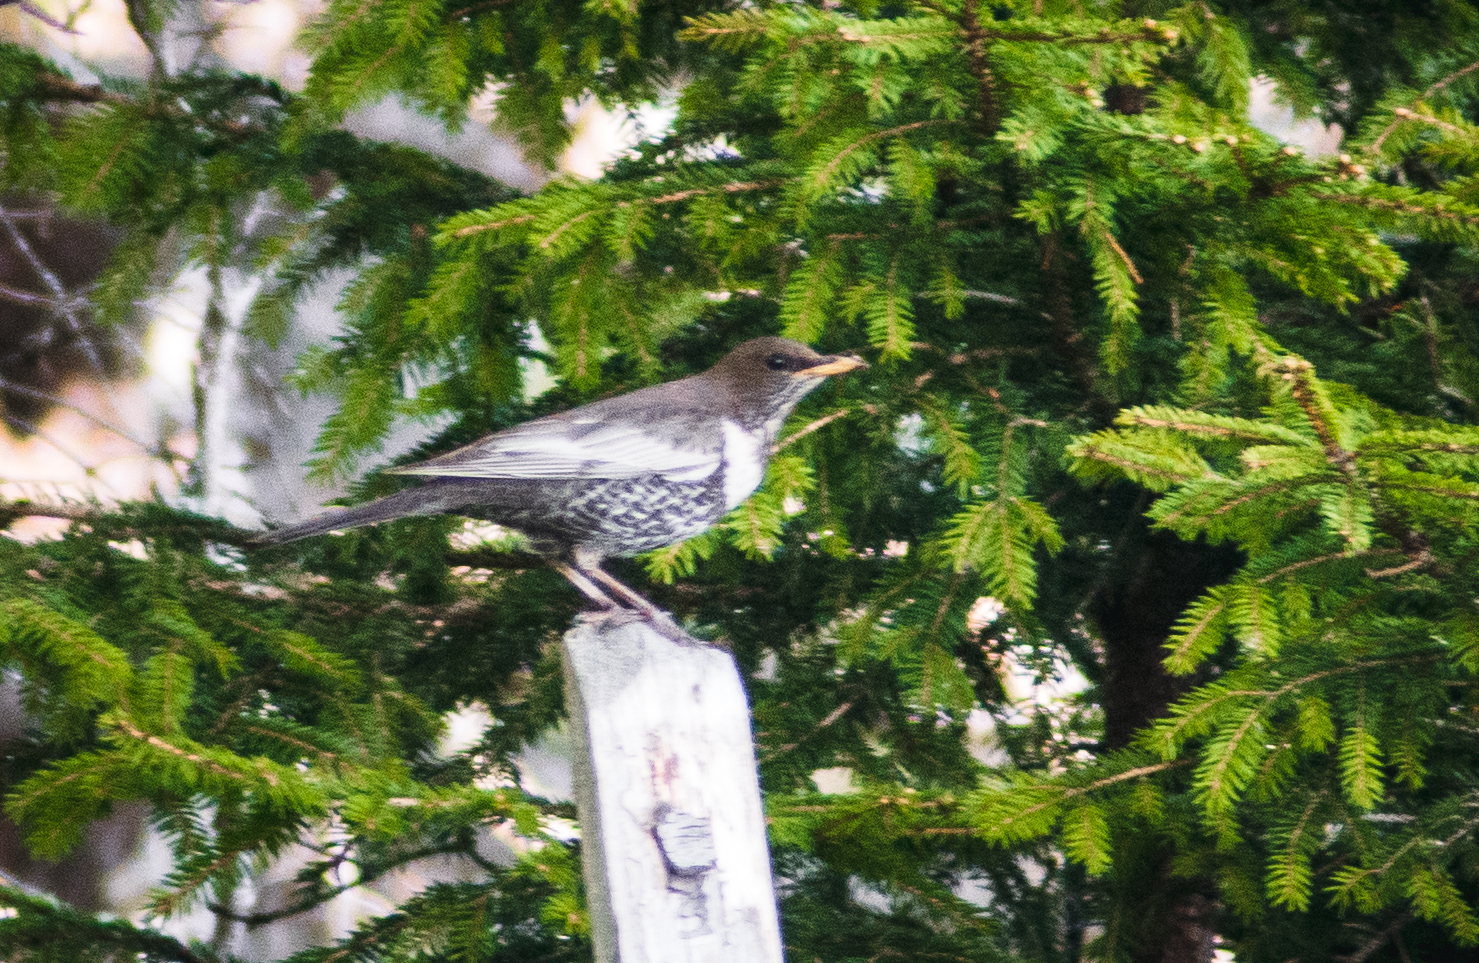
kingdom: Animalia
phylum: Chordata
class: Aves
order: Passeriformes
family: Turdidae
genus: Turdus
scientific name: Turdus torquatus
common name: Ring ouzel
